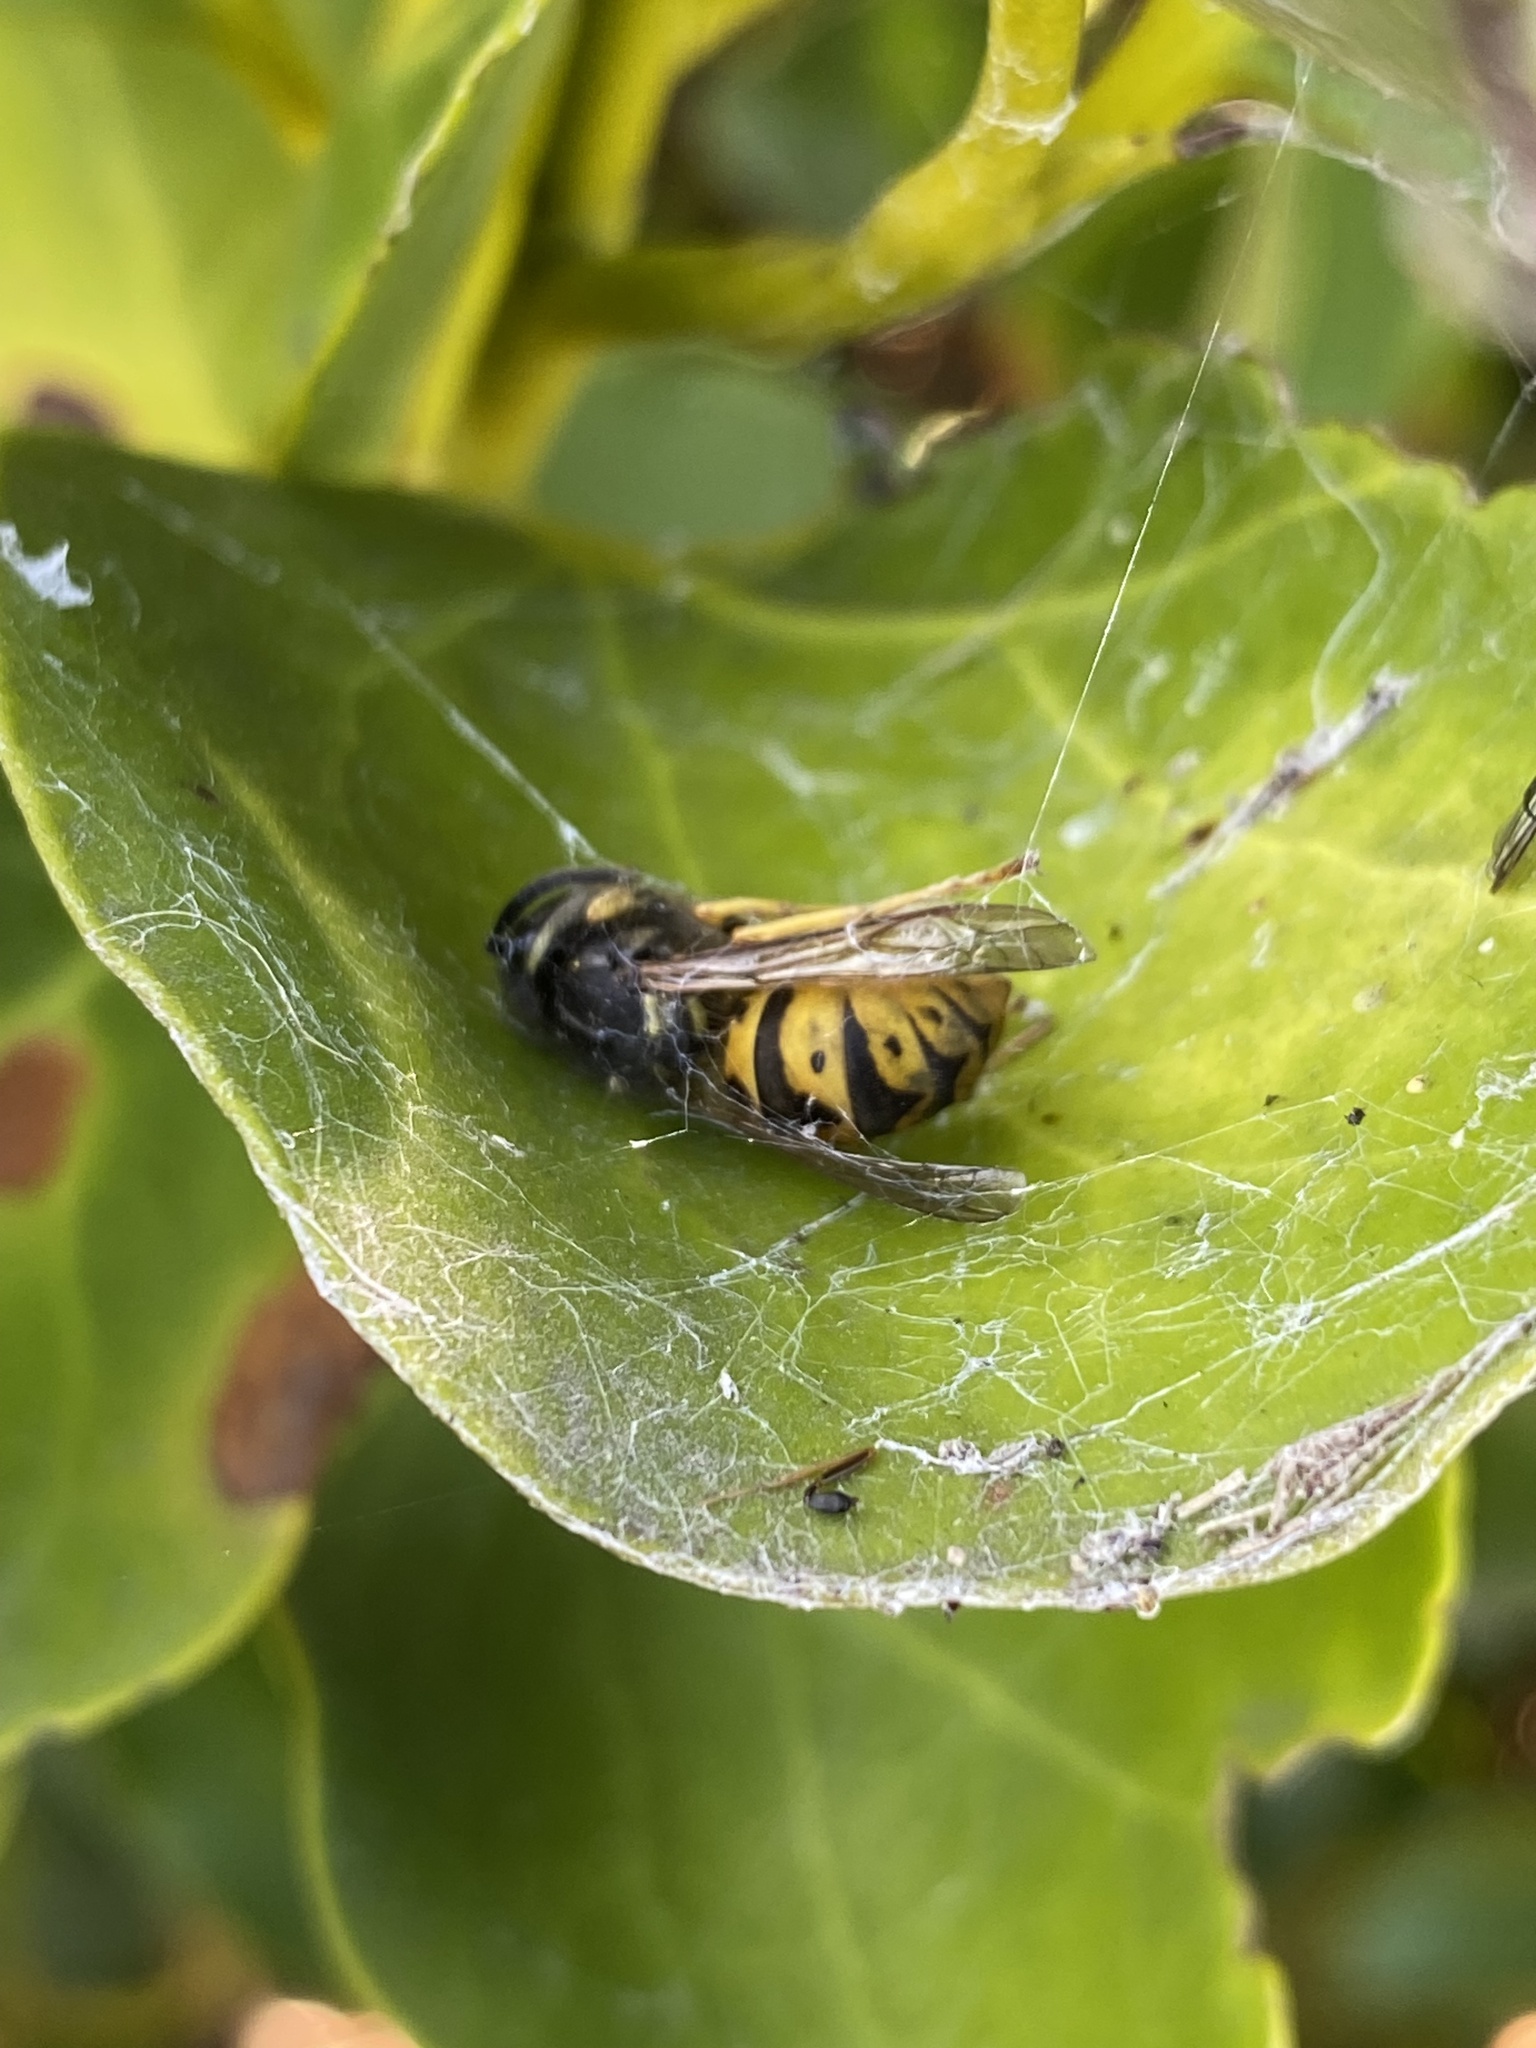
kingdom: Animalia
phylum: Arthropoda
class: Insecta
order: Hymenoptera
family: Vespidae
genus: Vespula
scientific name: Vespula germanica
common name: German wasp
